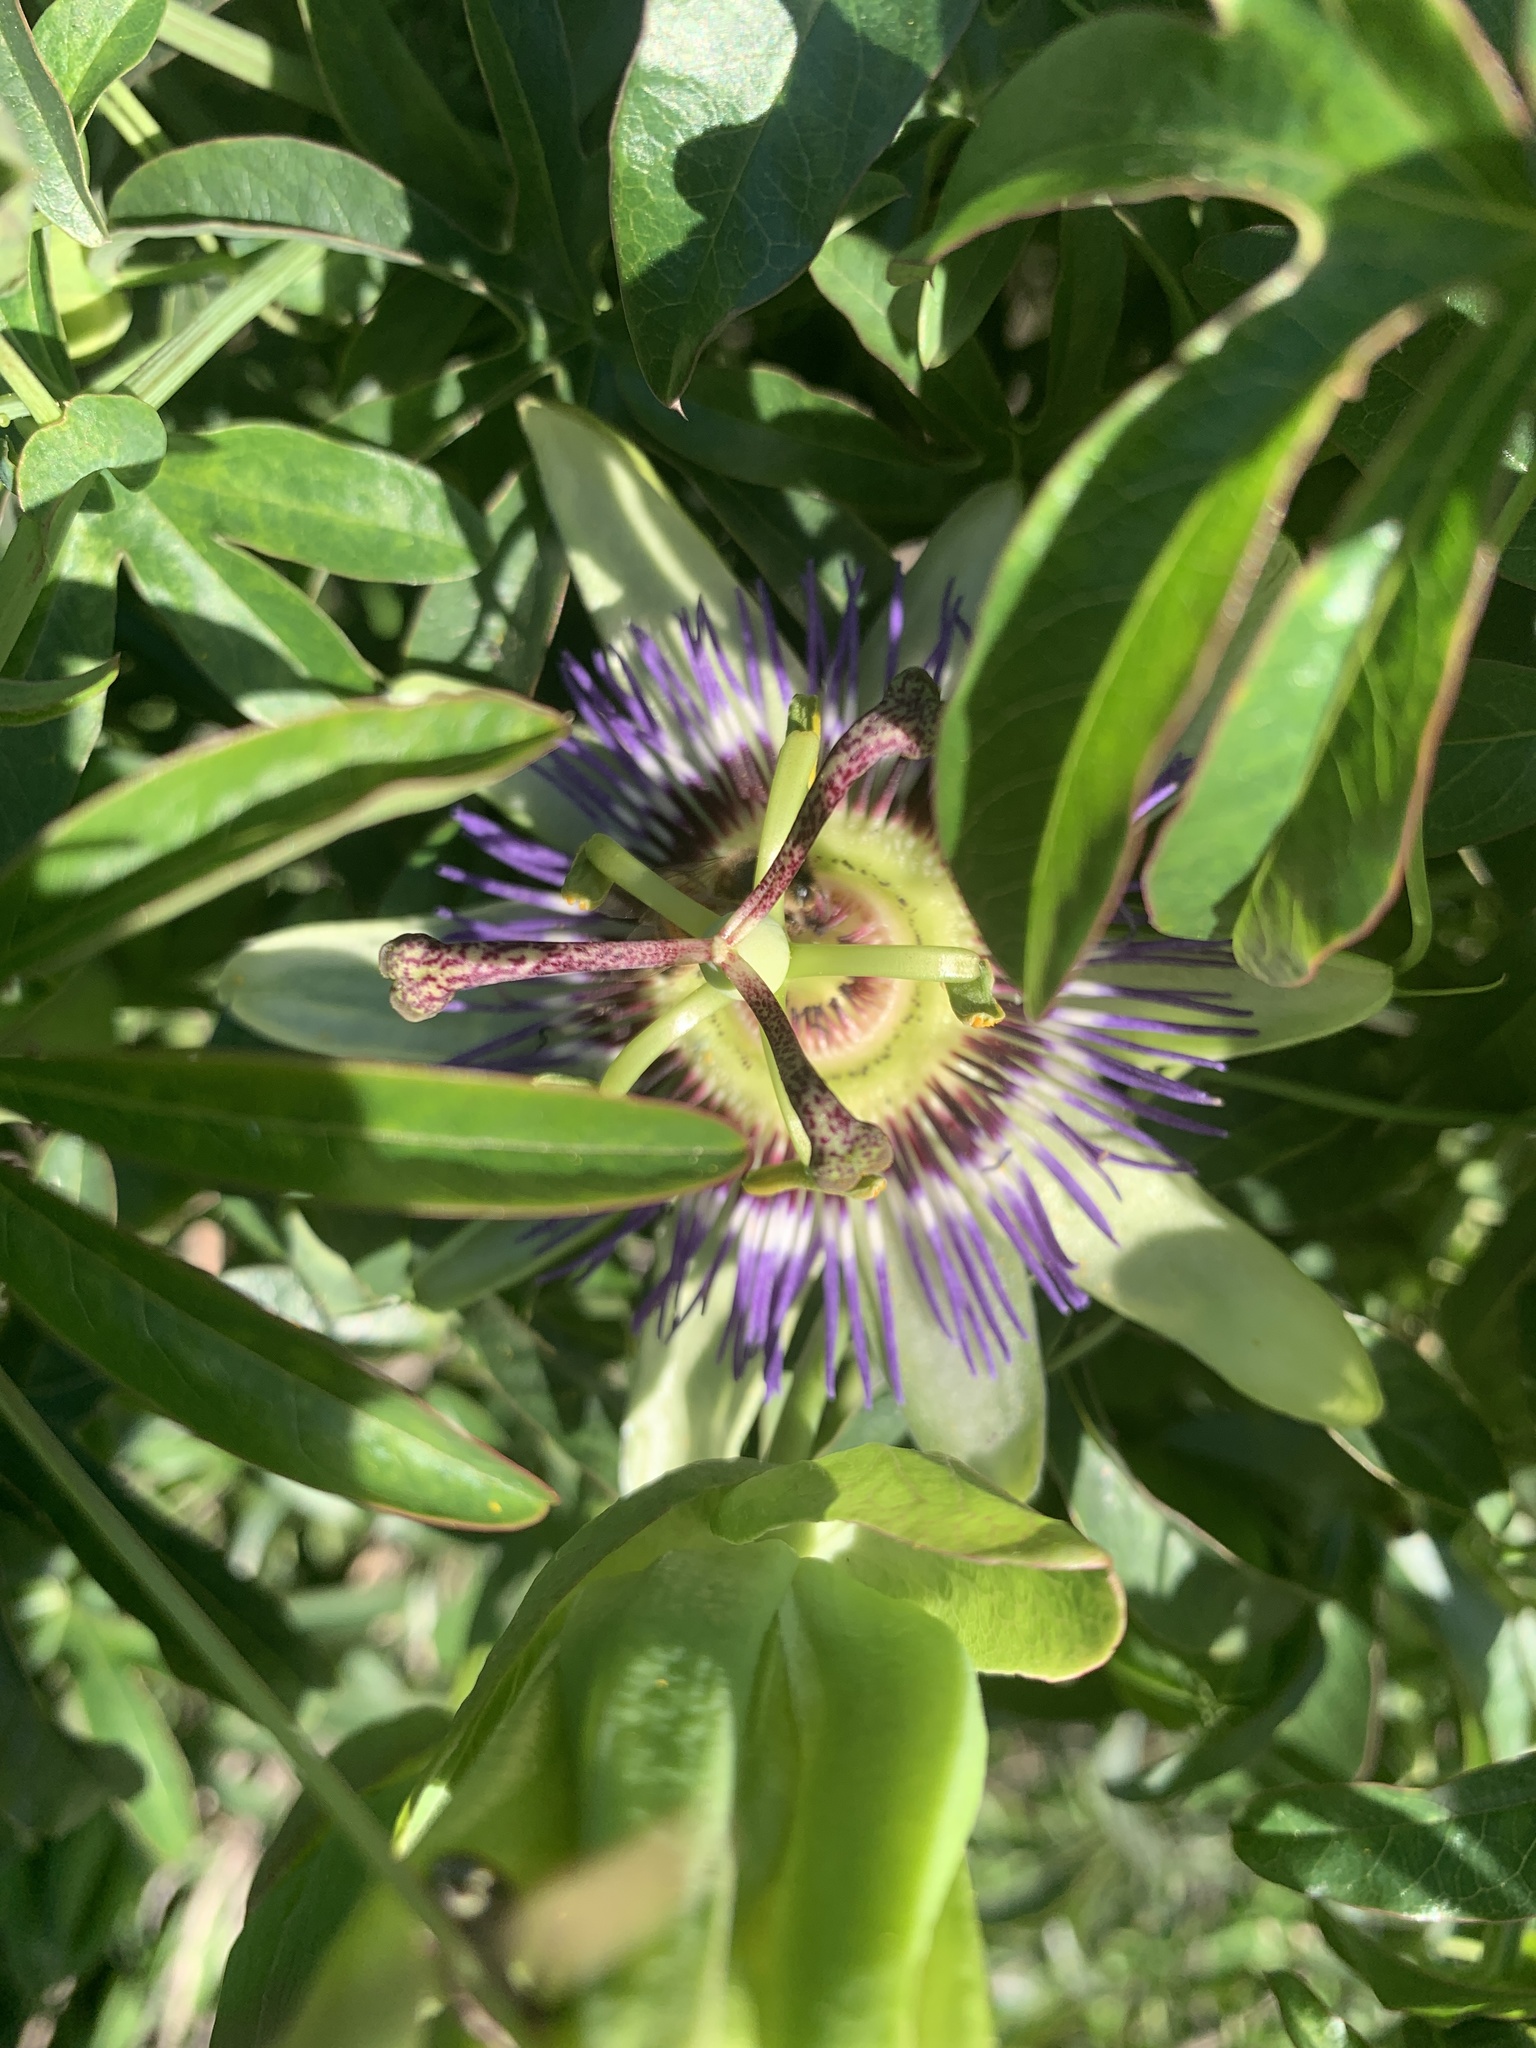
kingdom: Plantae
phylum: Tracheophyta
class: Magnoliopsida
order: Malpighiales
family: Passifloraceae
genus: Passiflora
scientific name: Passiflora caerulea
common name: Blue passionflower
